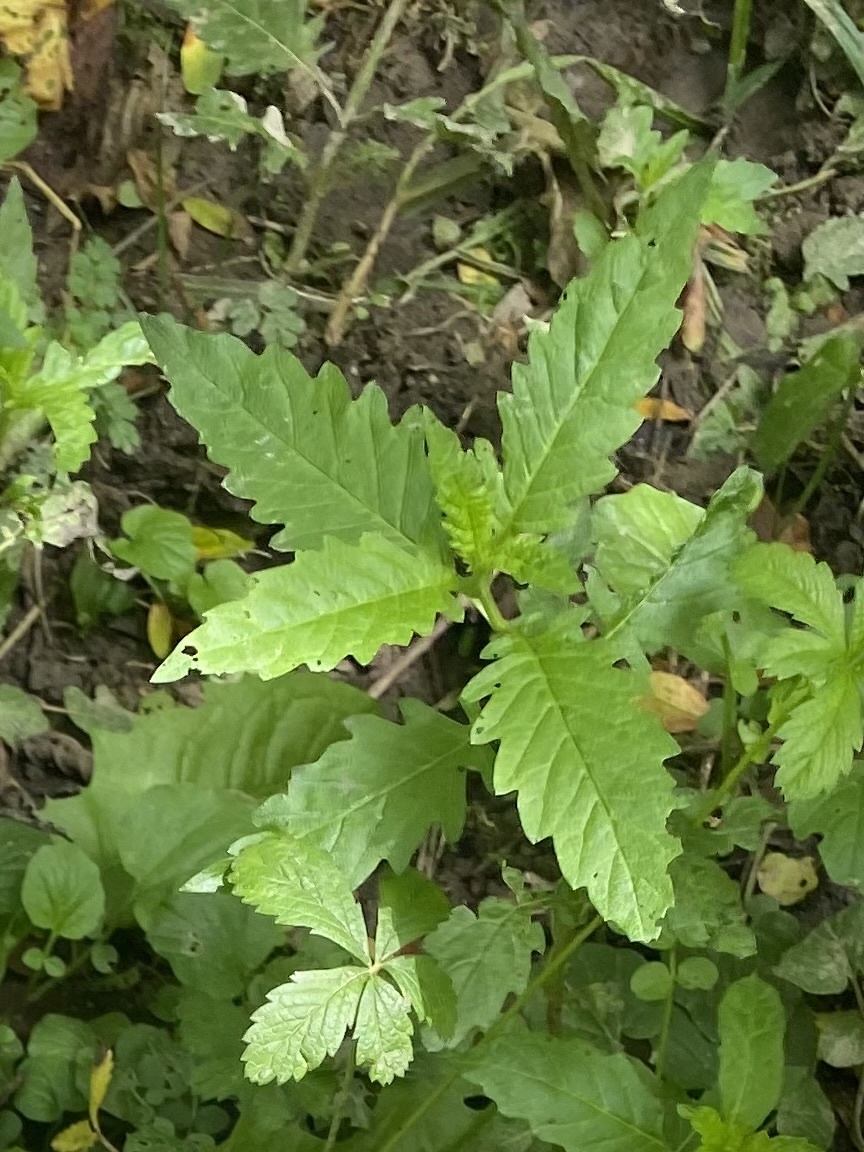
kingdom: Plantae
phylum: Tracheophyta
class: Magnoliopsida
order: Lamiales
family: Lamiaceae
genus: Lycopus
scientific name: Lycopus europaeus
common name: European bugleweed
